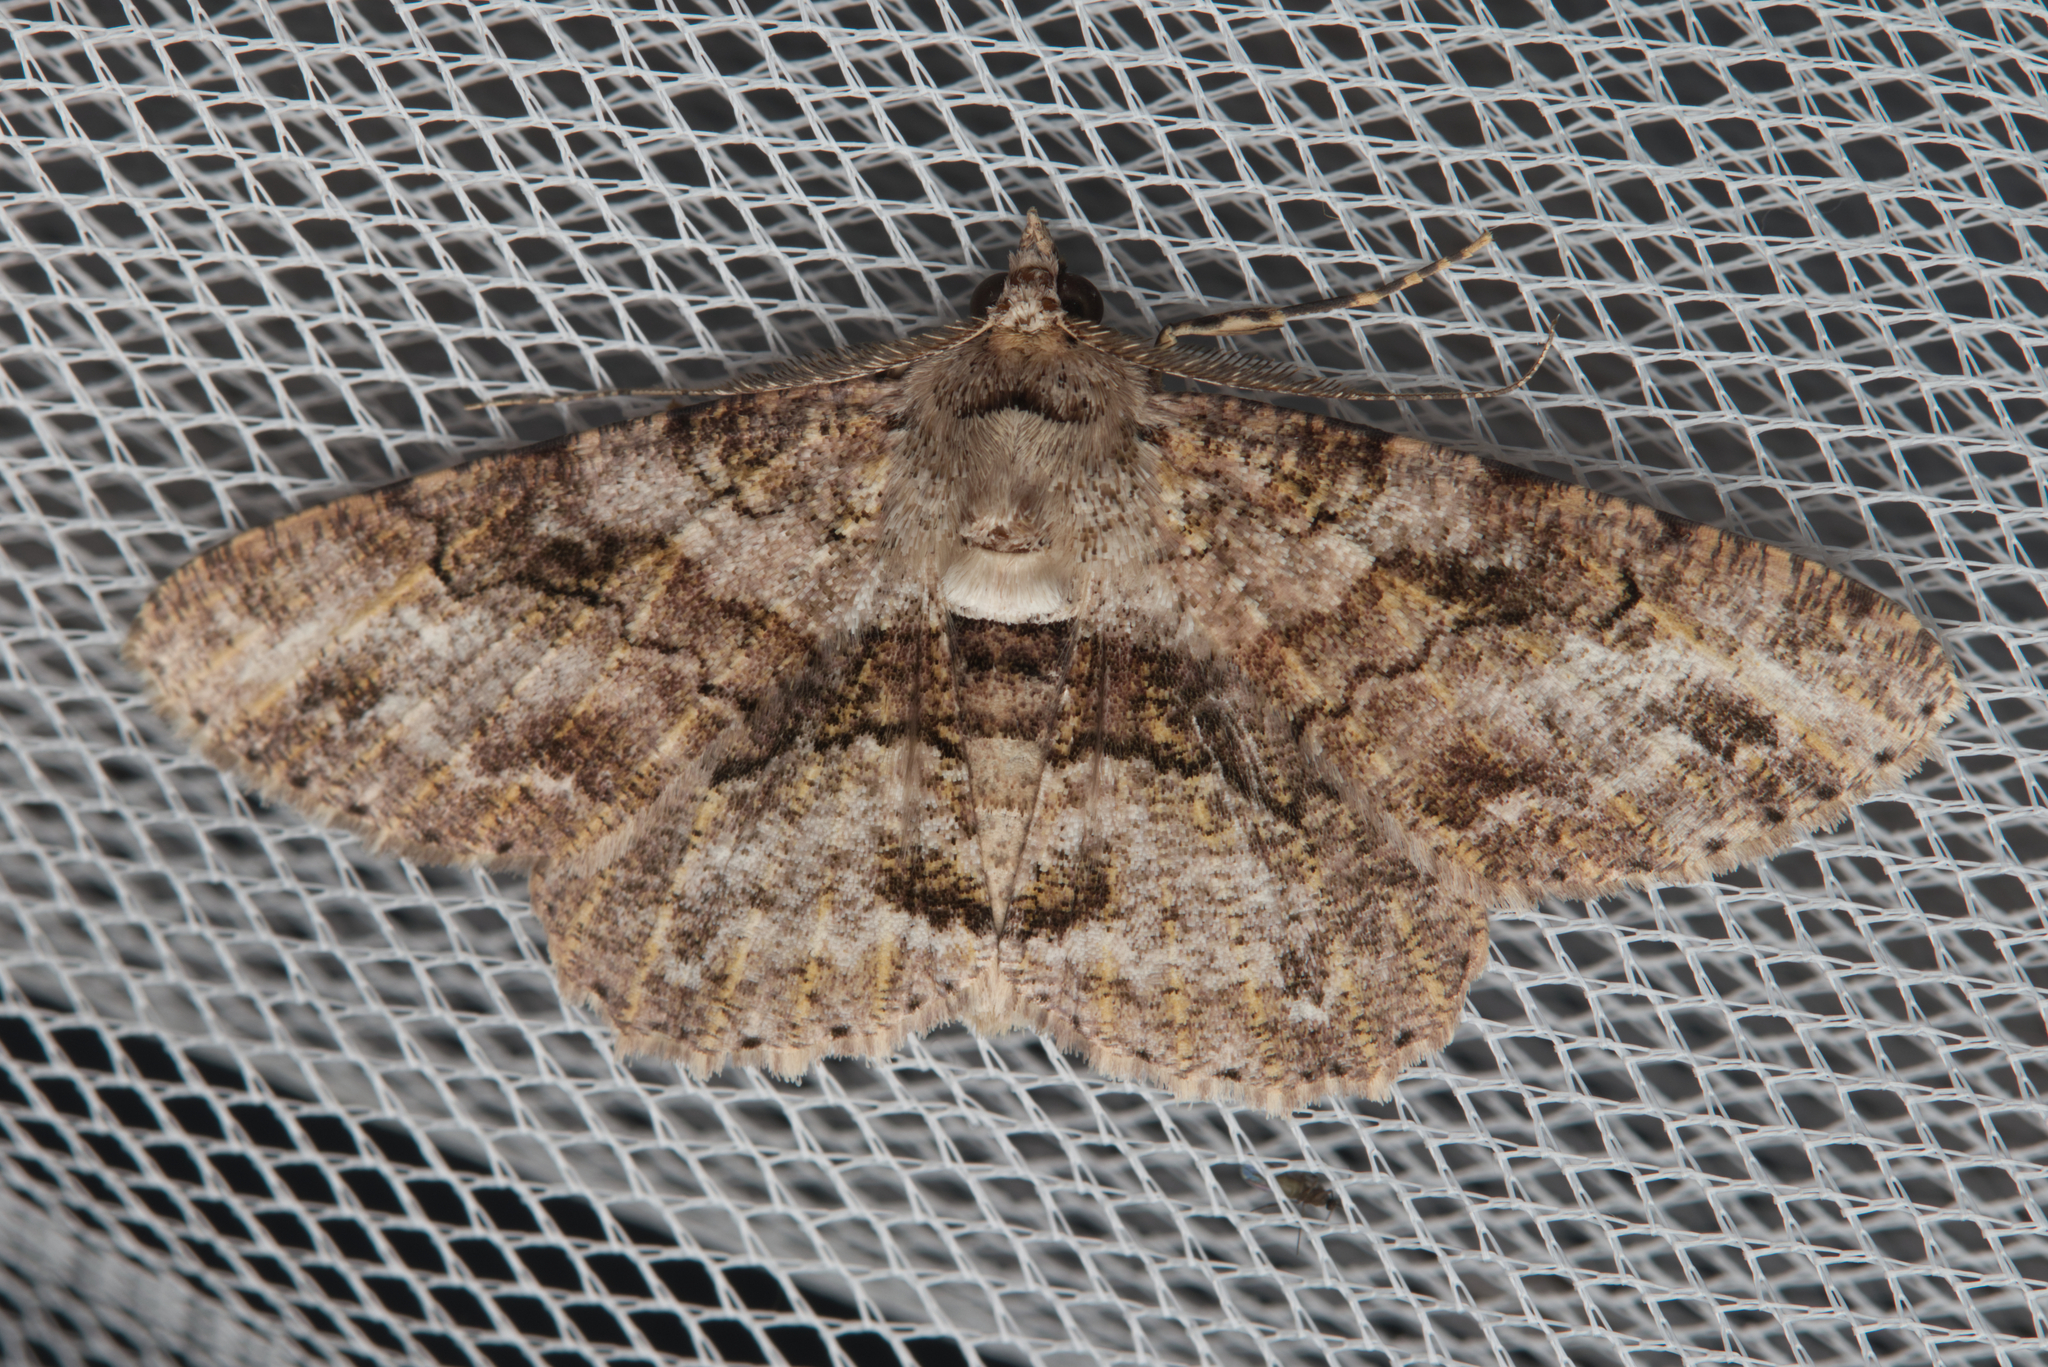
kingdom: Animalia
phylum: Arthropoda
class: Insecta
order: Lepidoptera
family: Geometridae
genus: Cleora
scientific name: Cleora repetita
